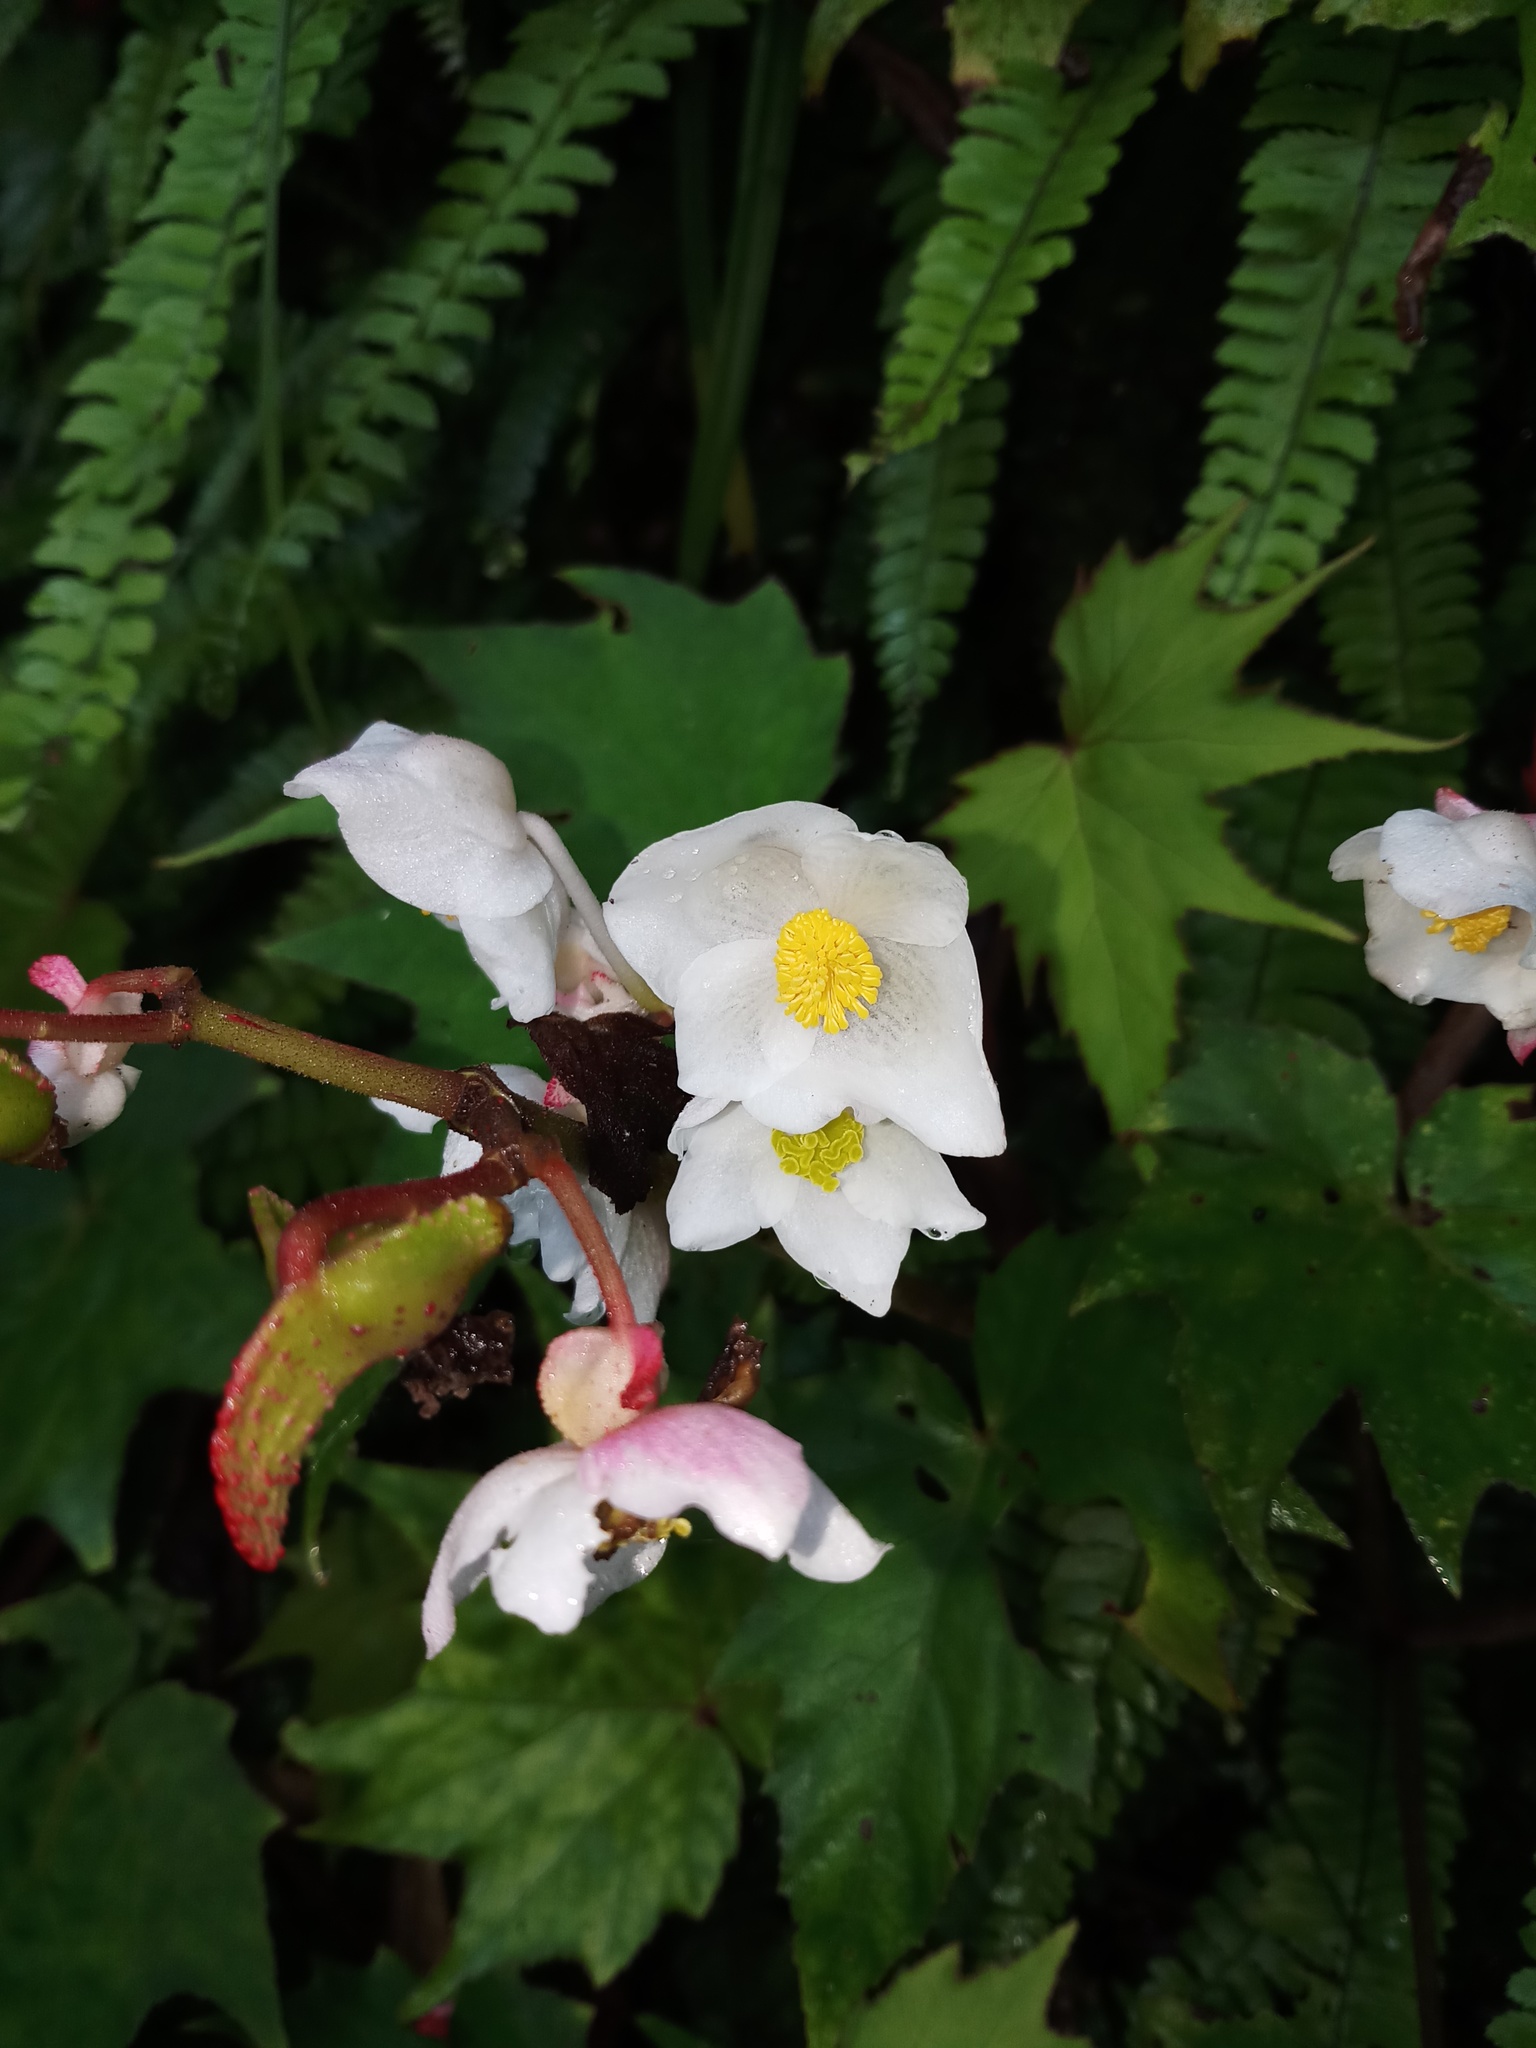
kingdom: Plantae
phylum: Tracheophyta
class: Magnoliopsida
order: Cucurbitales
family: Begoniaceae
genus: Begonia
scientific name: Begonia palmata
